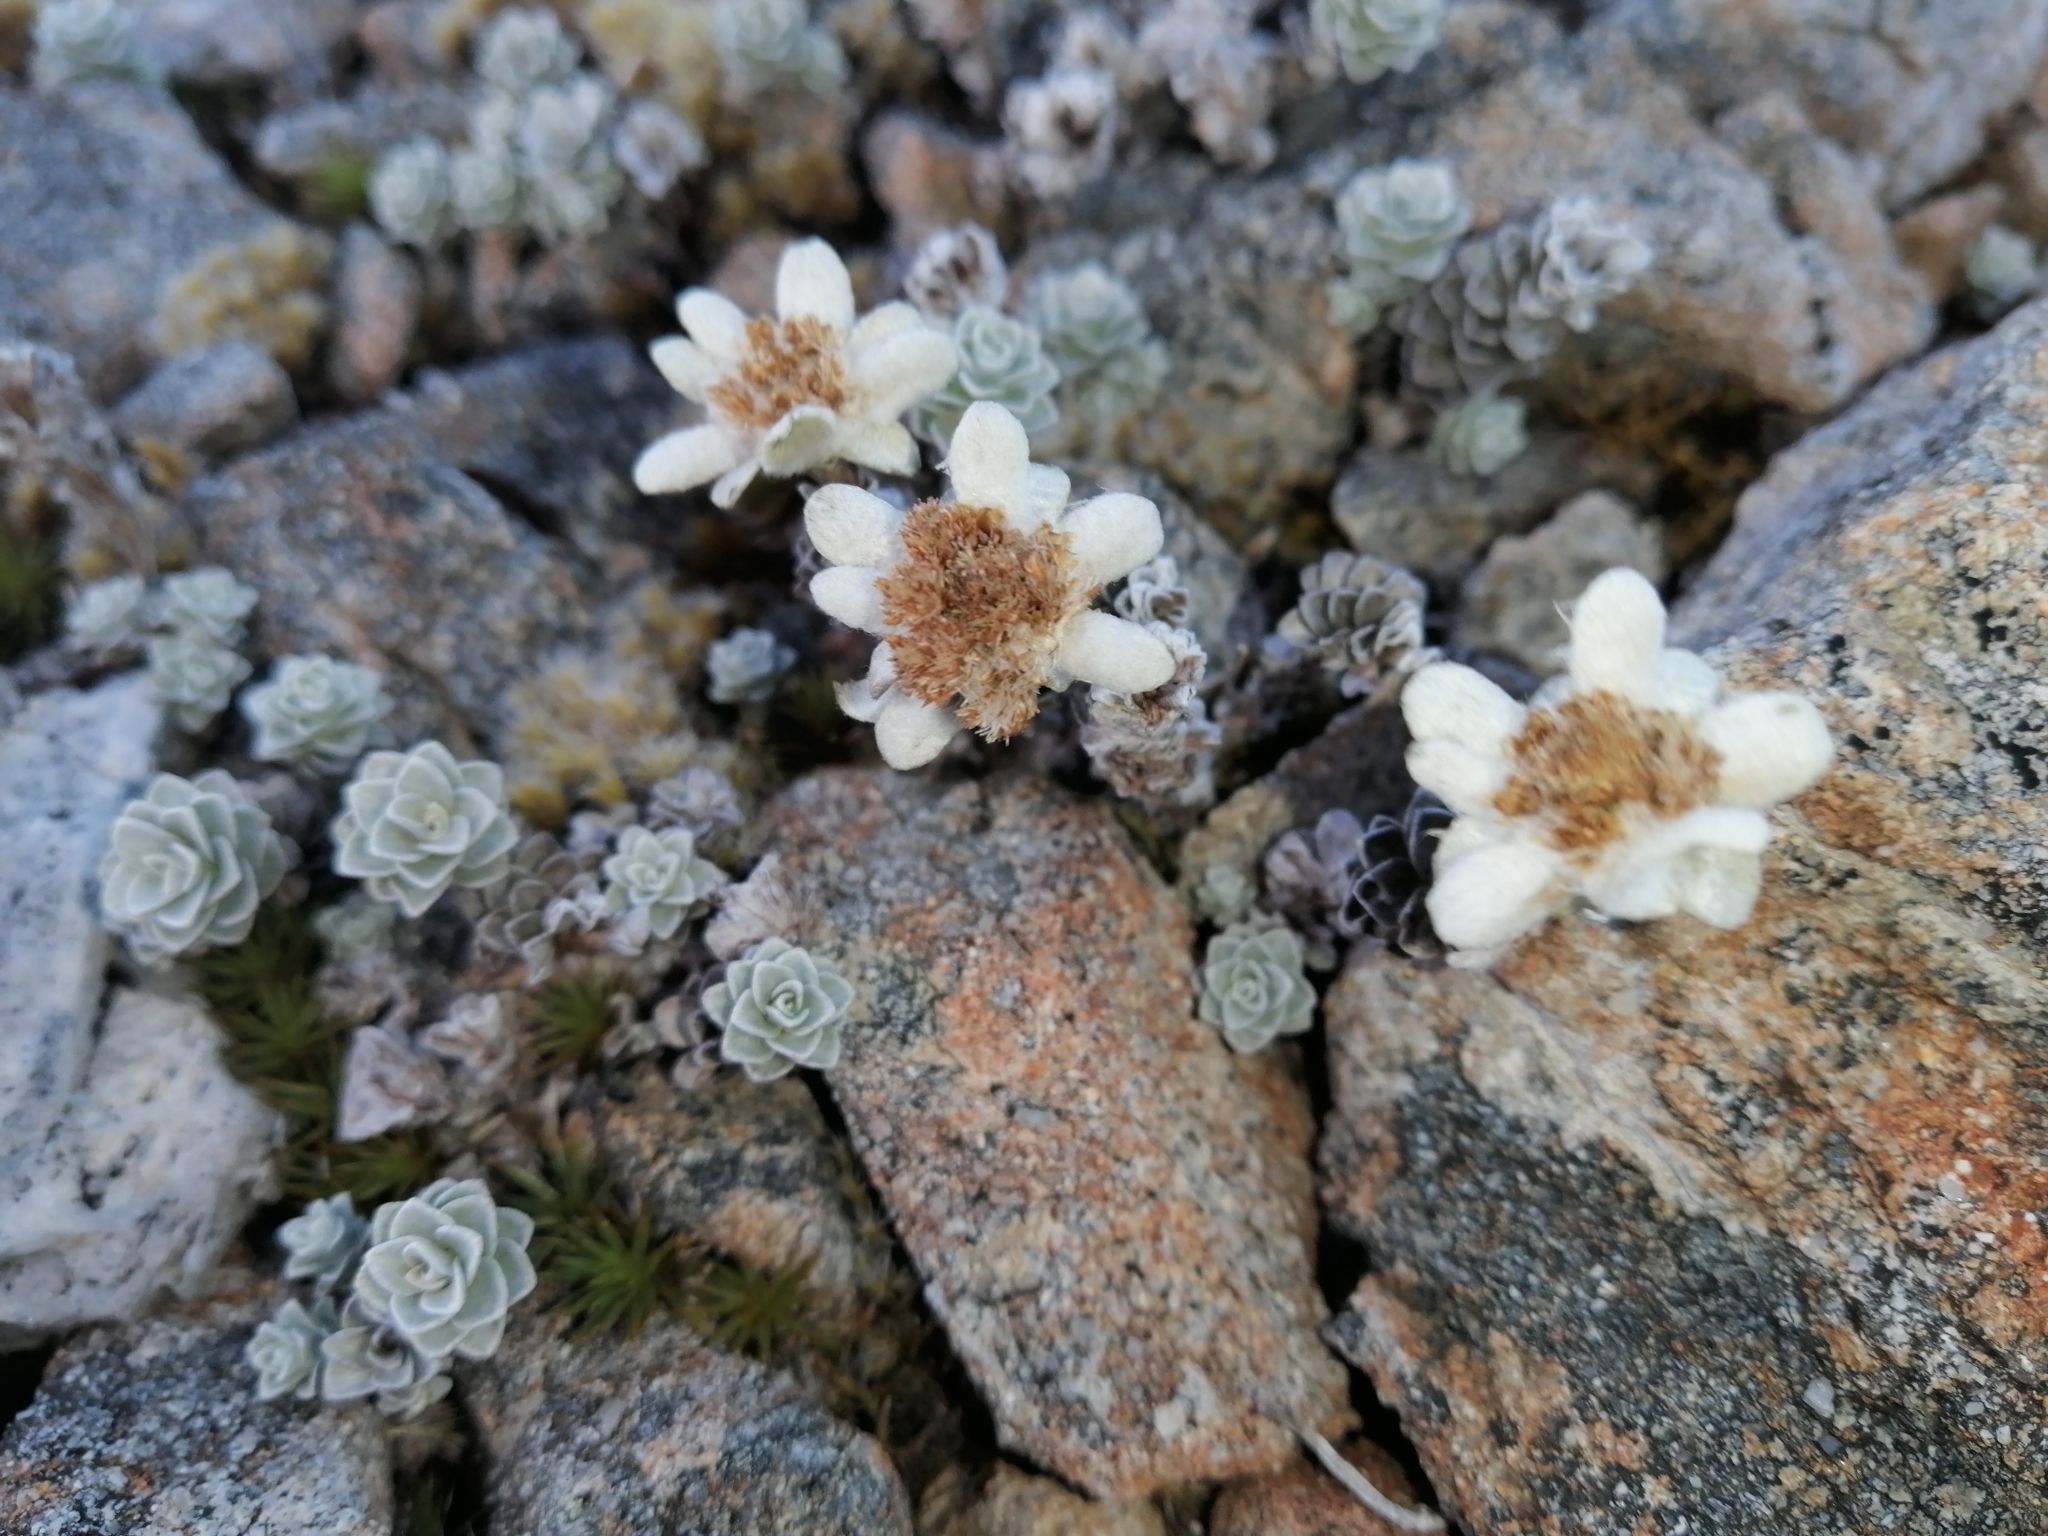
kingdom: Plantae
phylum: Tracheophyta
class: Magnoliopsida
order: Asterales
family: Asteraceae
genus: Leucogenes
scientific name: Leucogenes grandiceps
